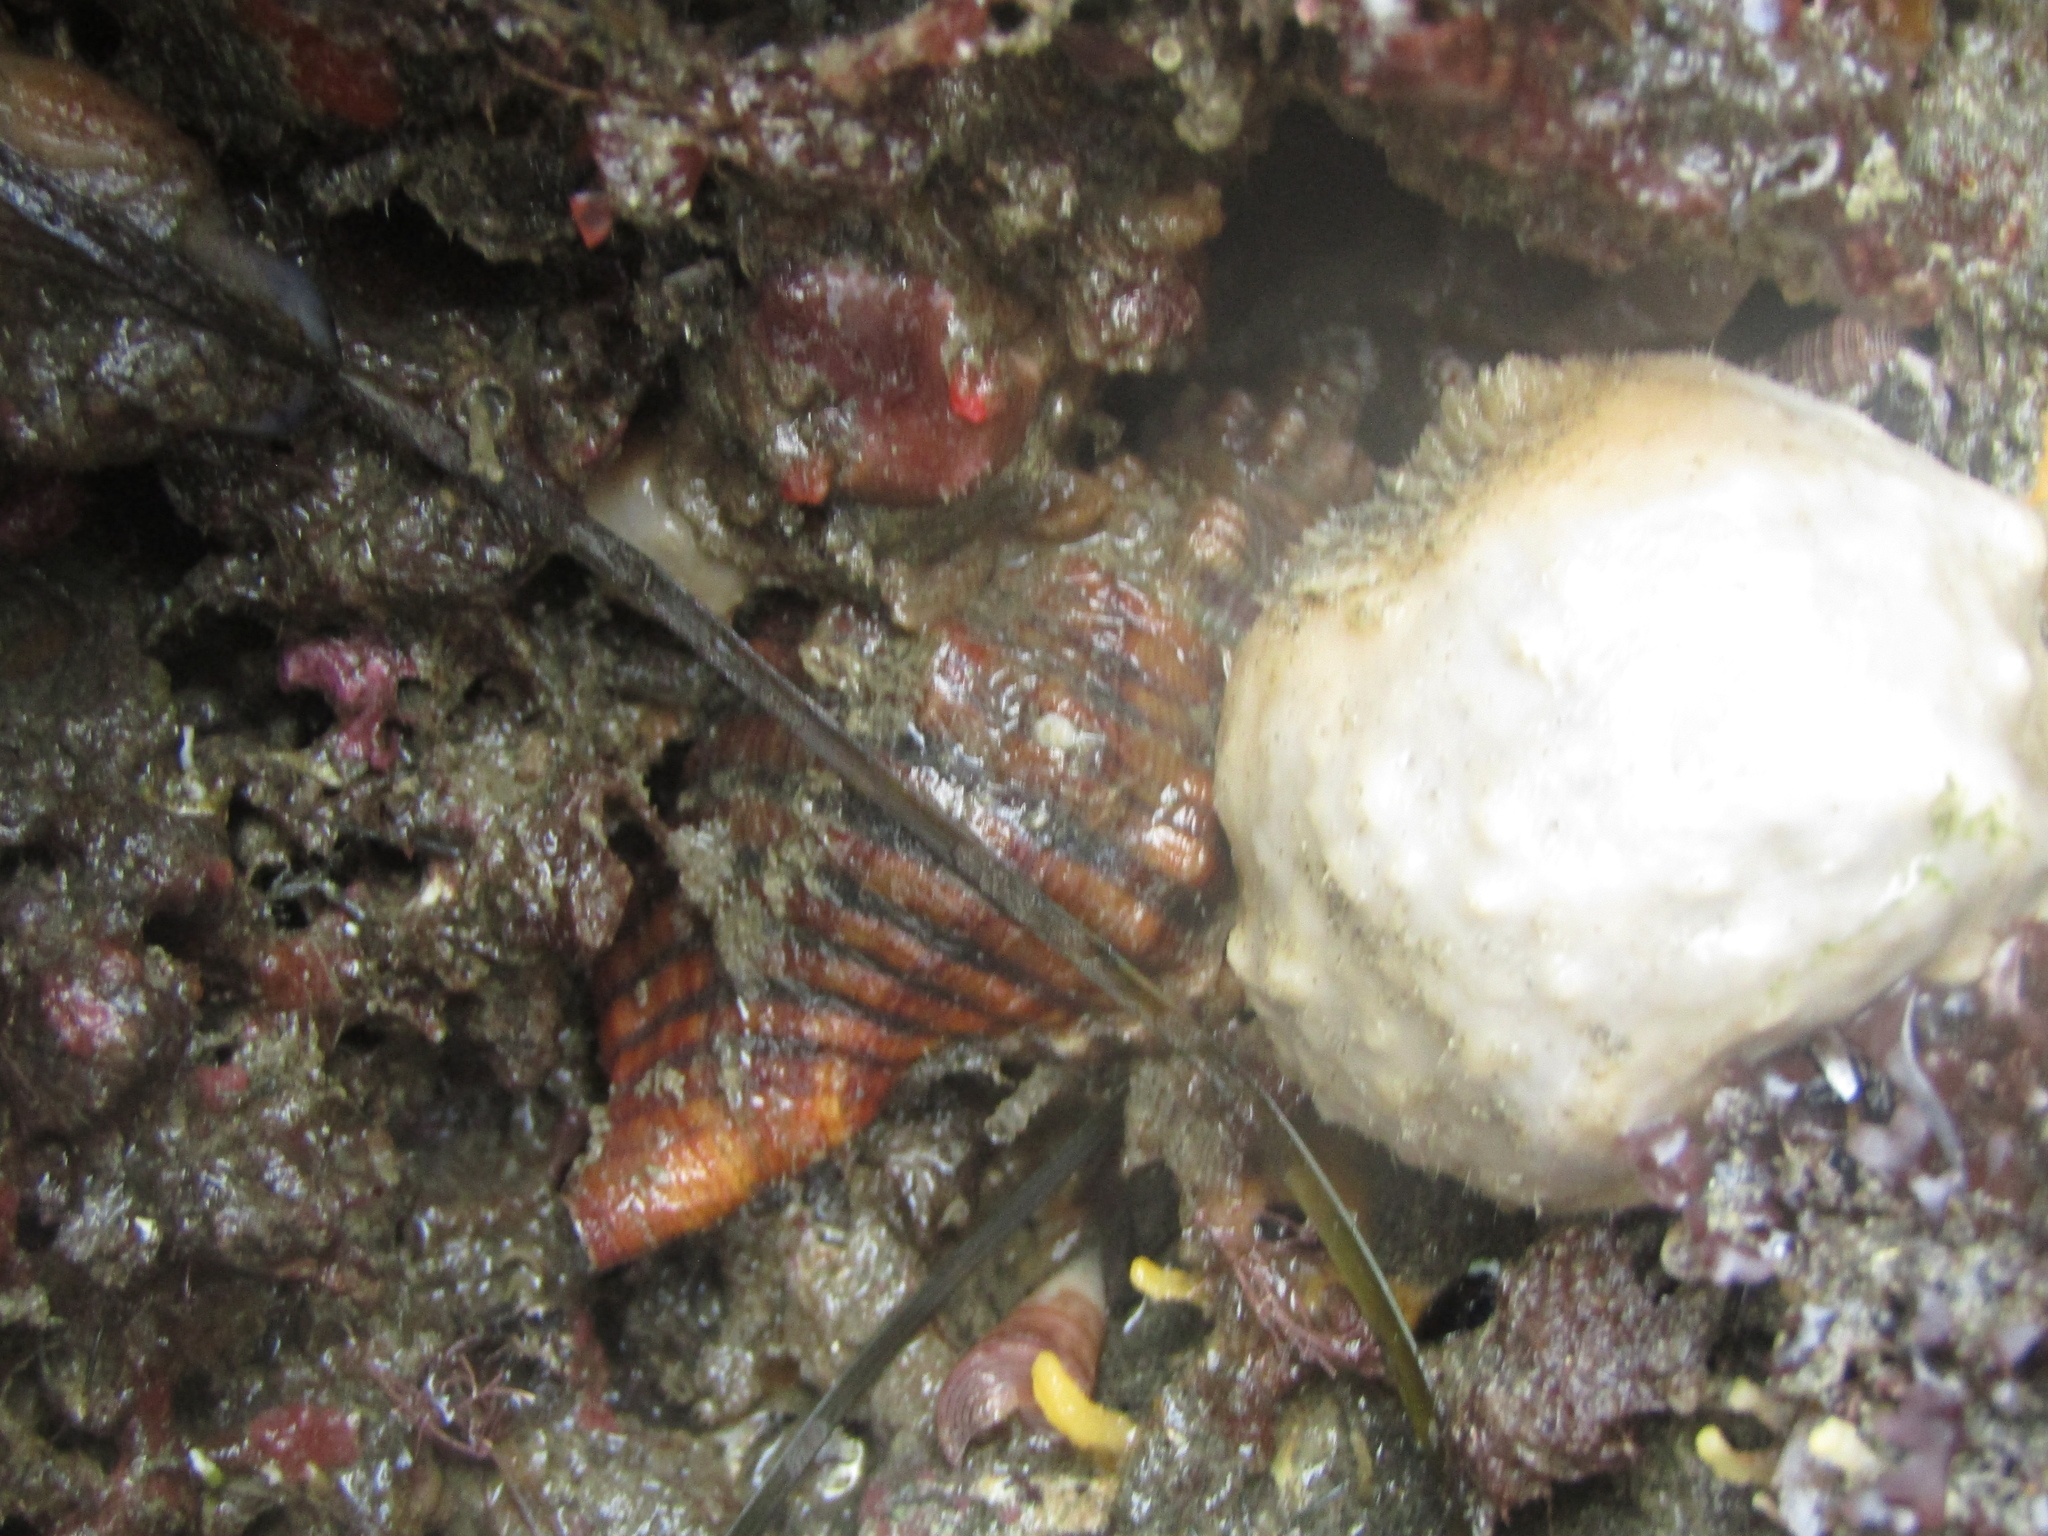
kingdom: Animalia
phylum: Mollusca
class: Gastropoda
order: Littorinimorpha
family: Cymatiidae
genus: Cabestana
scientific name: Cabestana spengleri
